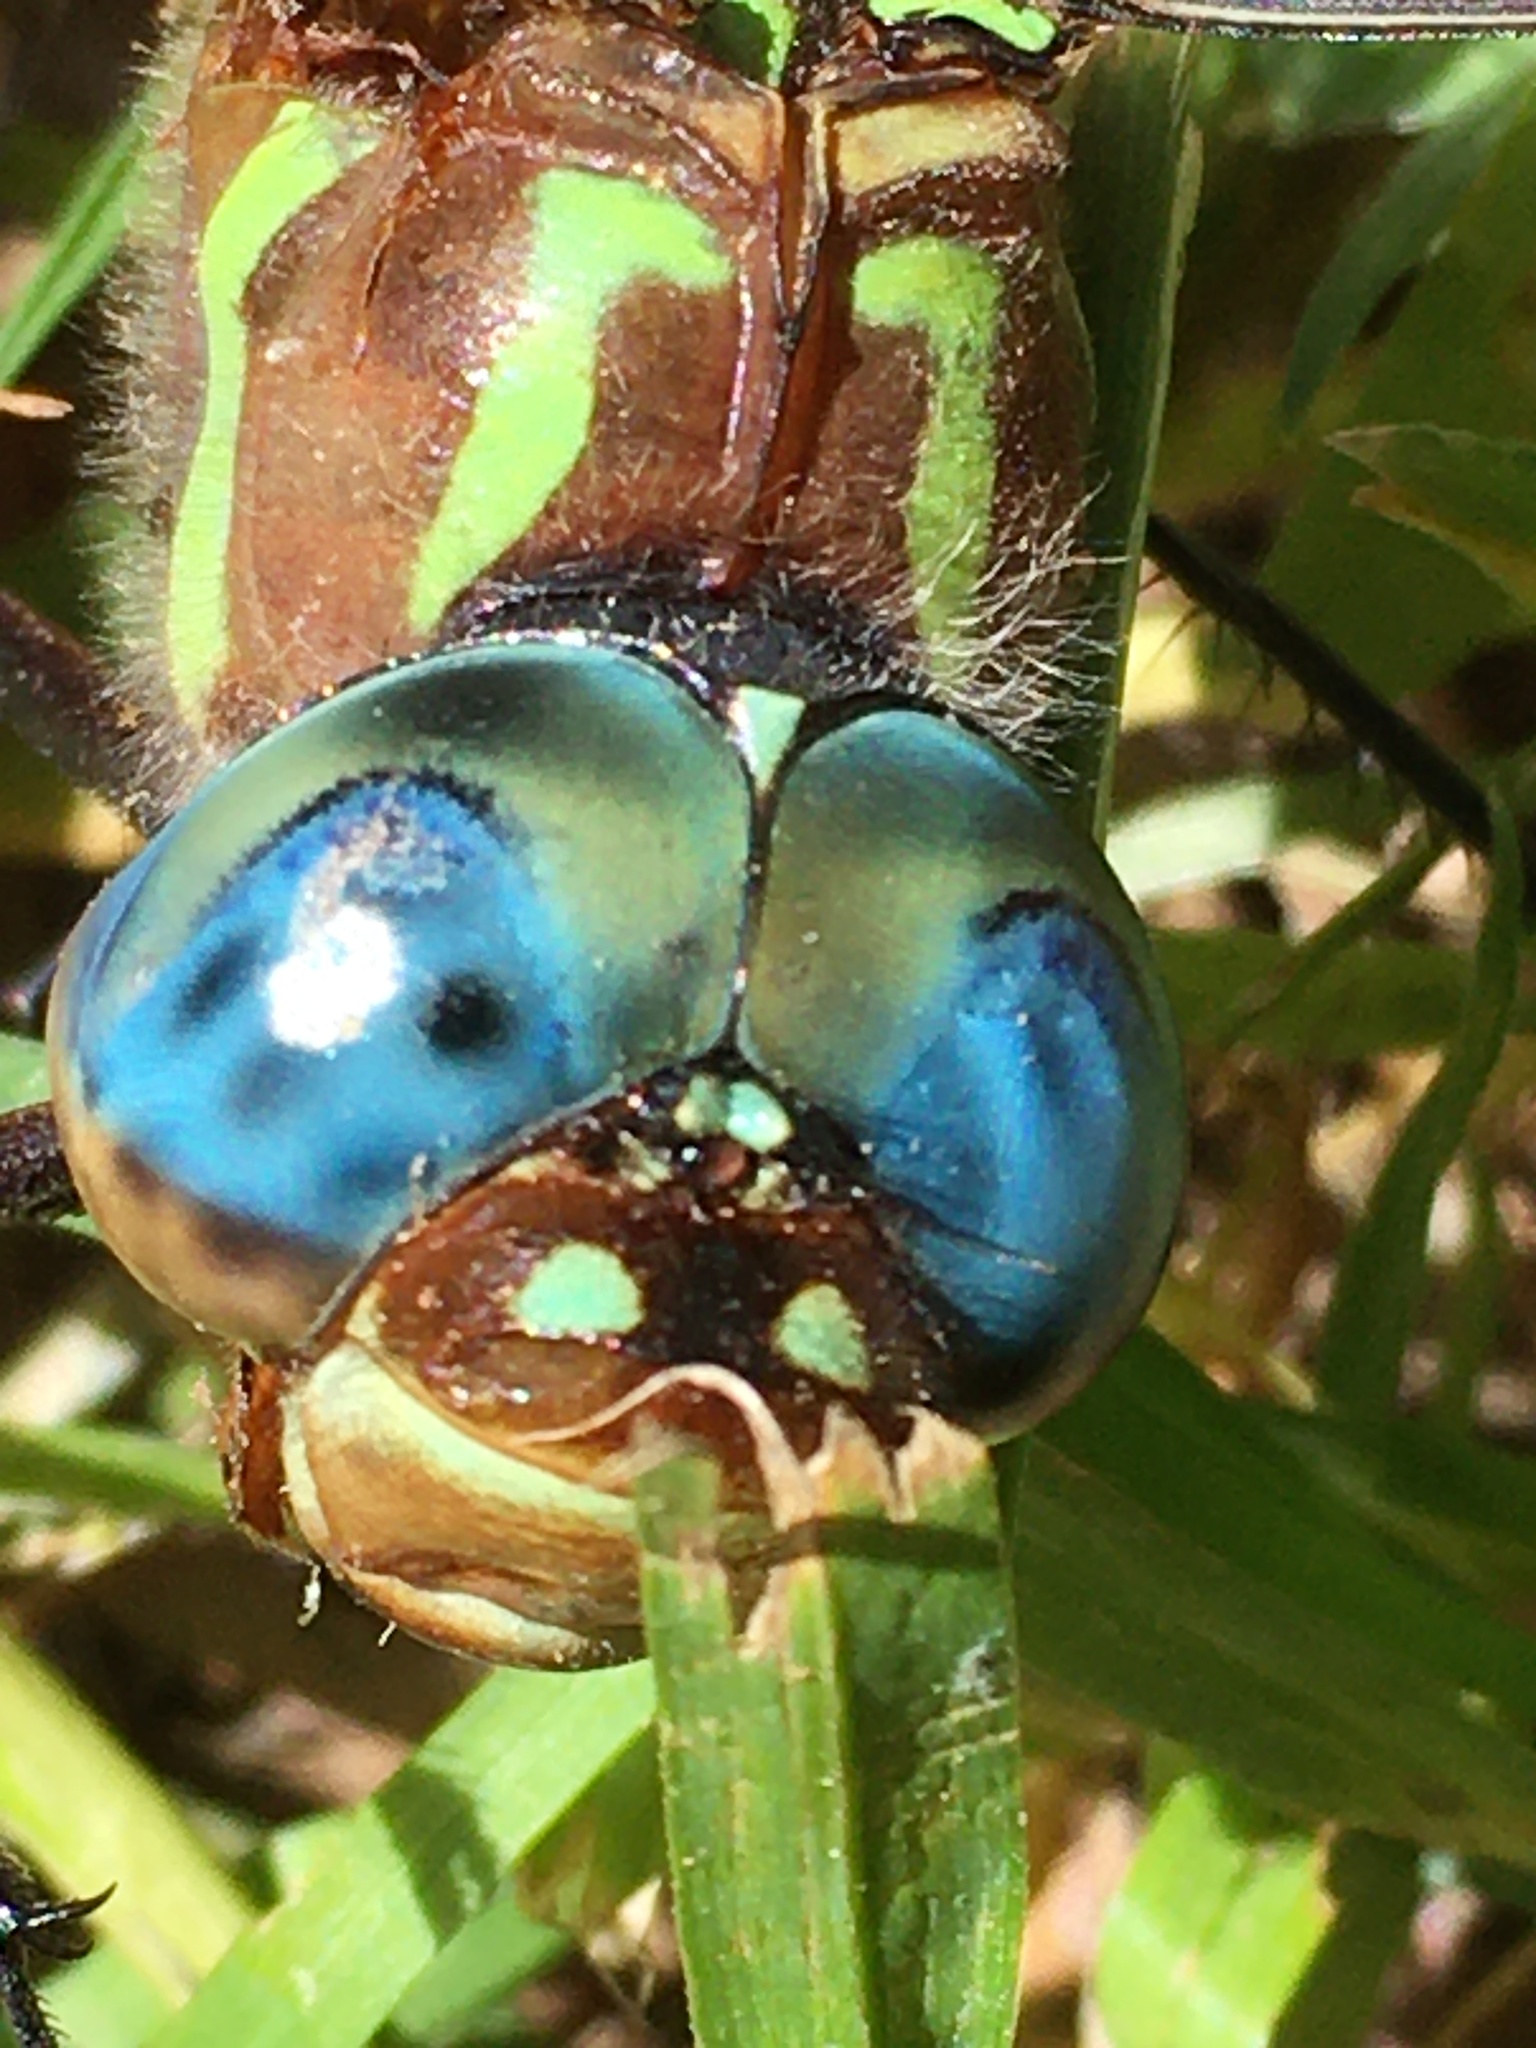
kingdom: Animalia
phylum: Arthropoda
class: Insecta
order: Odonata
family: Aeshnidae
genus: Epiaeschna
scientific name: Epiaeschna heros
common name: Swamp darner
